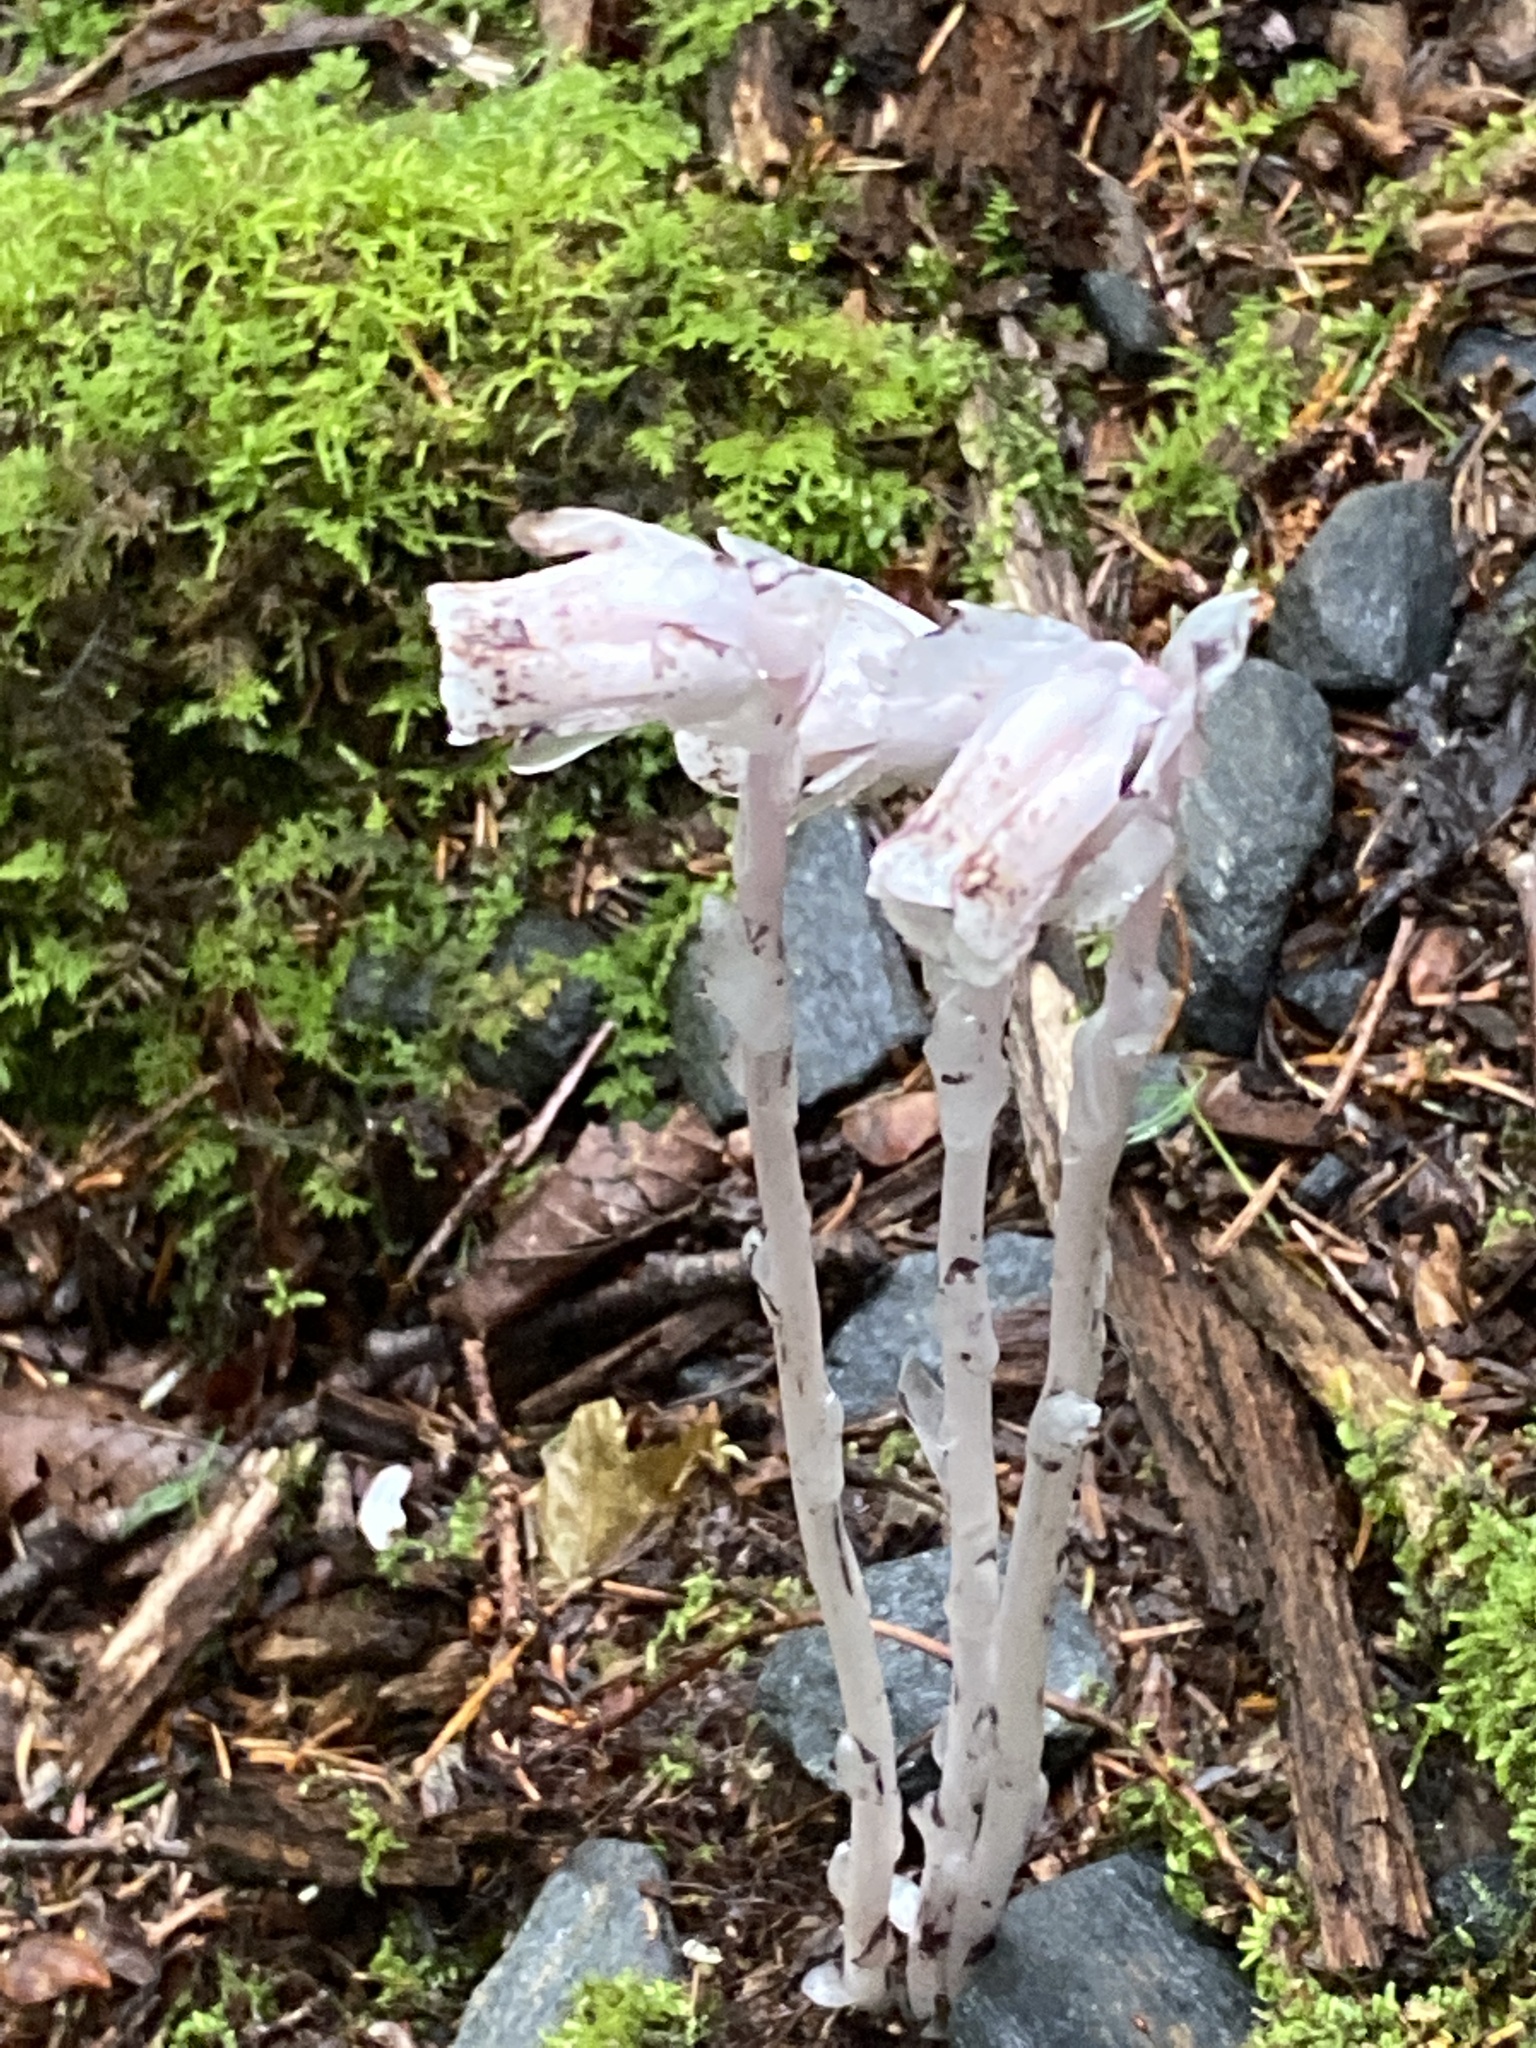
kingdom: Plantae
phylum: Tracheophyta
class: Magnoliopsida
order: Ericales
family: Ericaceae
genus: Monotropa
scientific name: Monotropa uniflora
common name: Convulsion root
